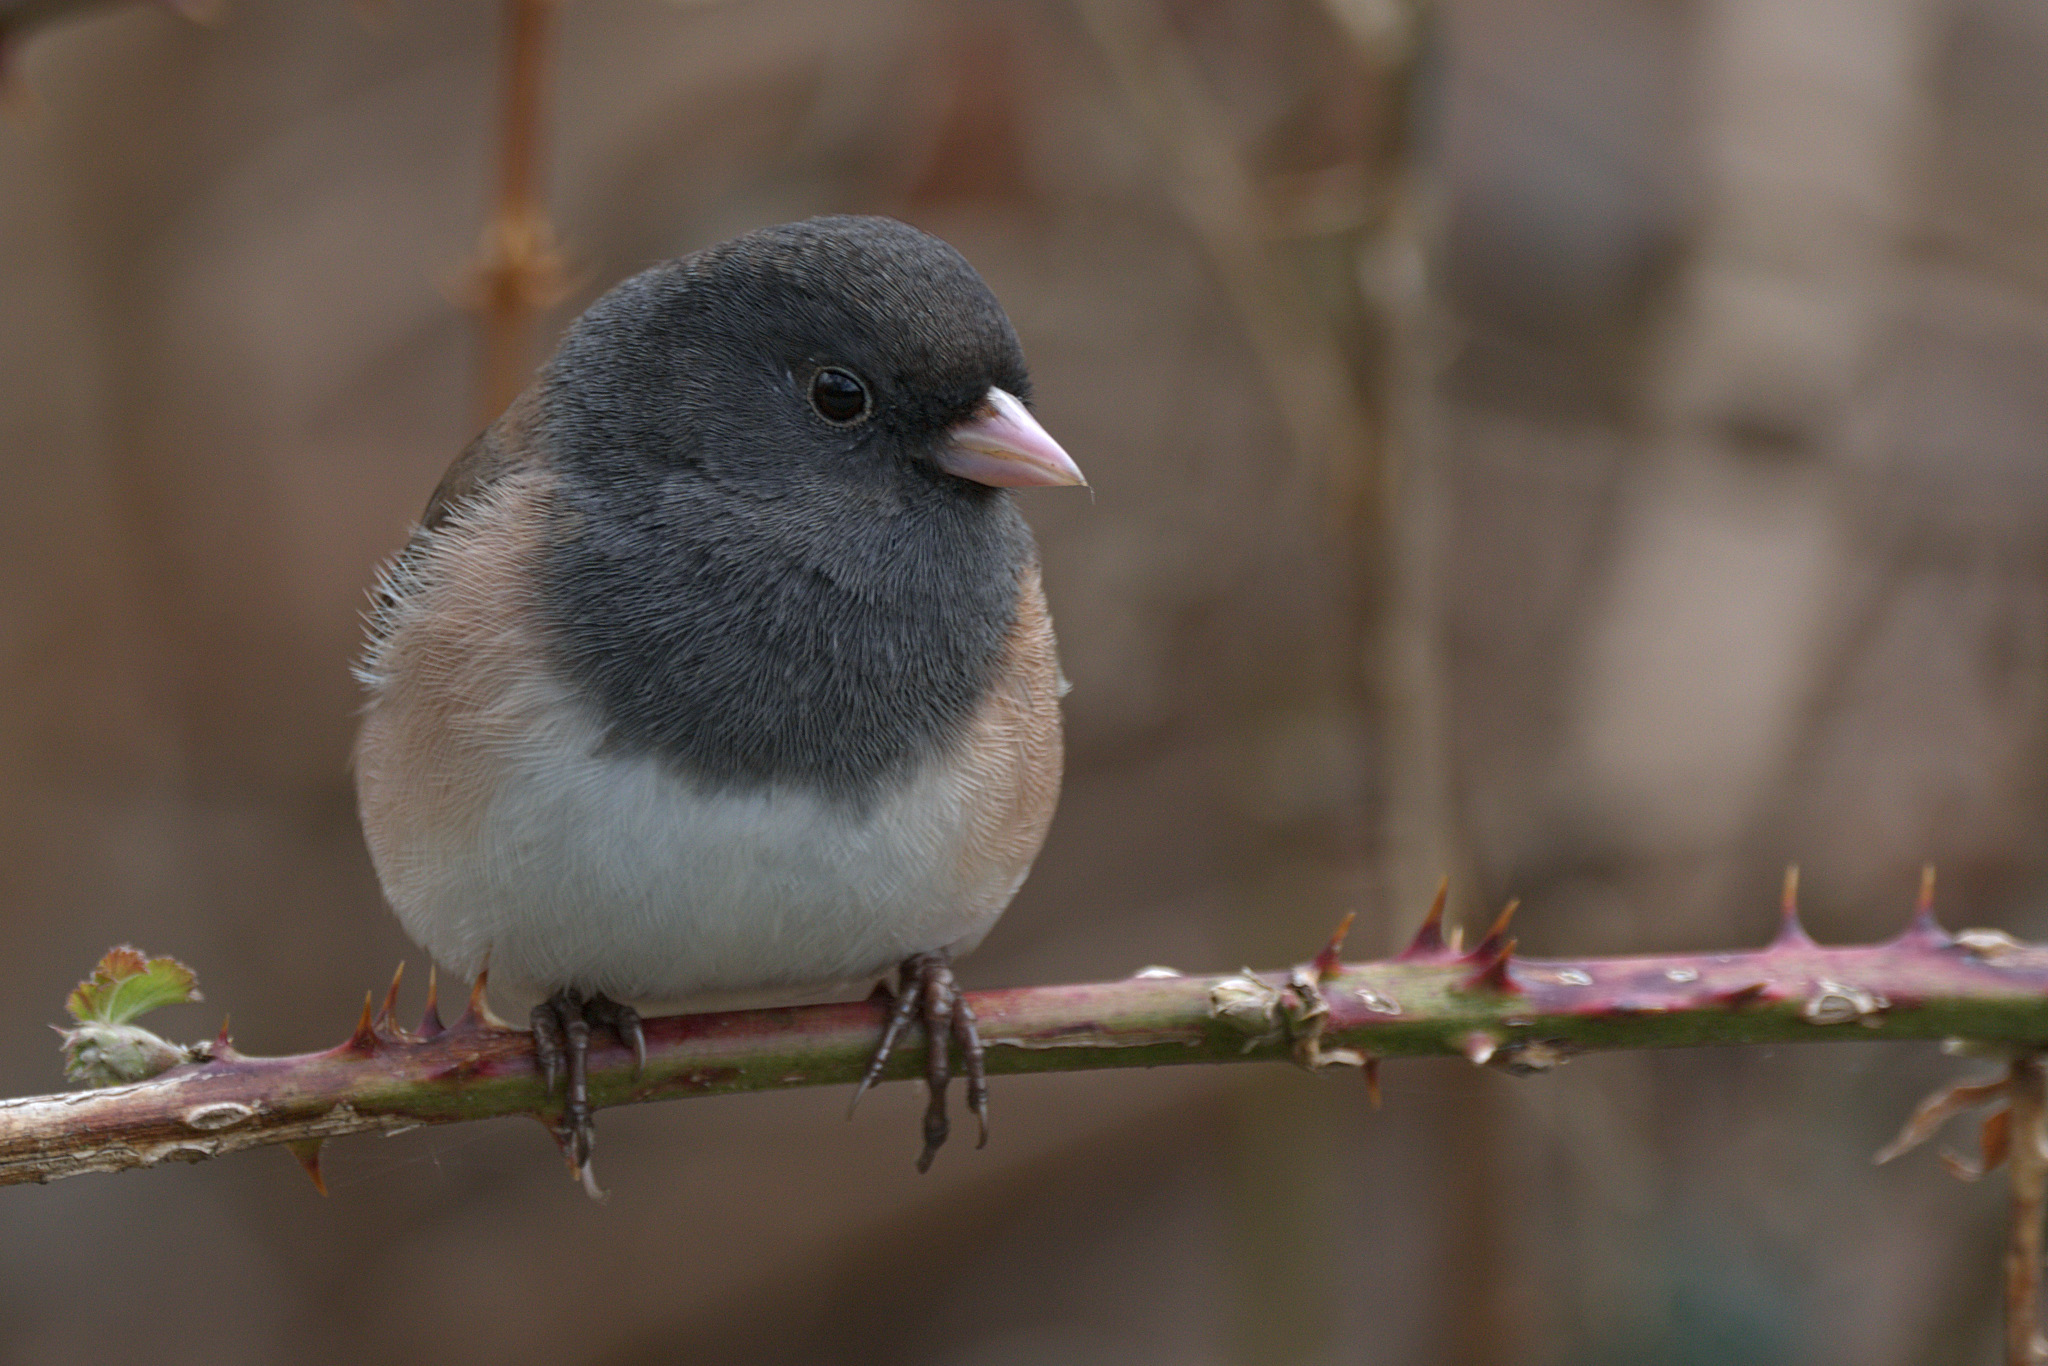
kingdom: Animalia
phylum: Chordata
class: Aves
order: Passeriformes
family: Passerellidae
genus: Junco
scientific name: Junco hyemalis
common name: Dark-eyed junco
